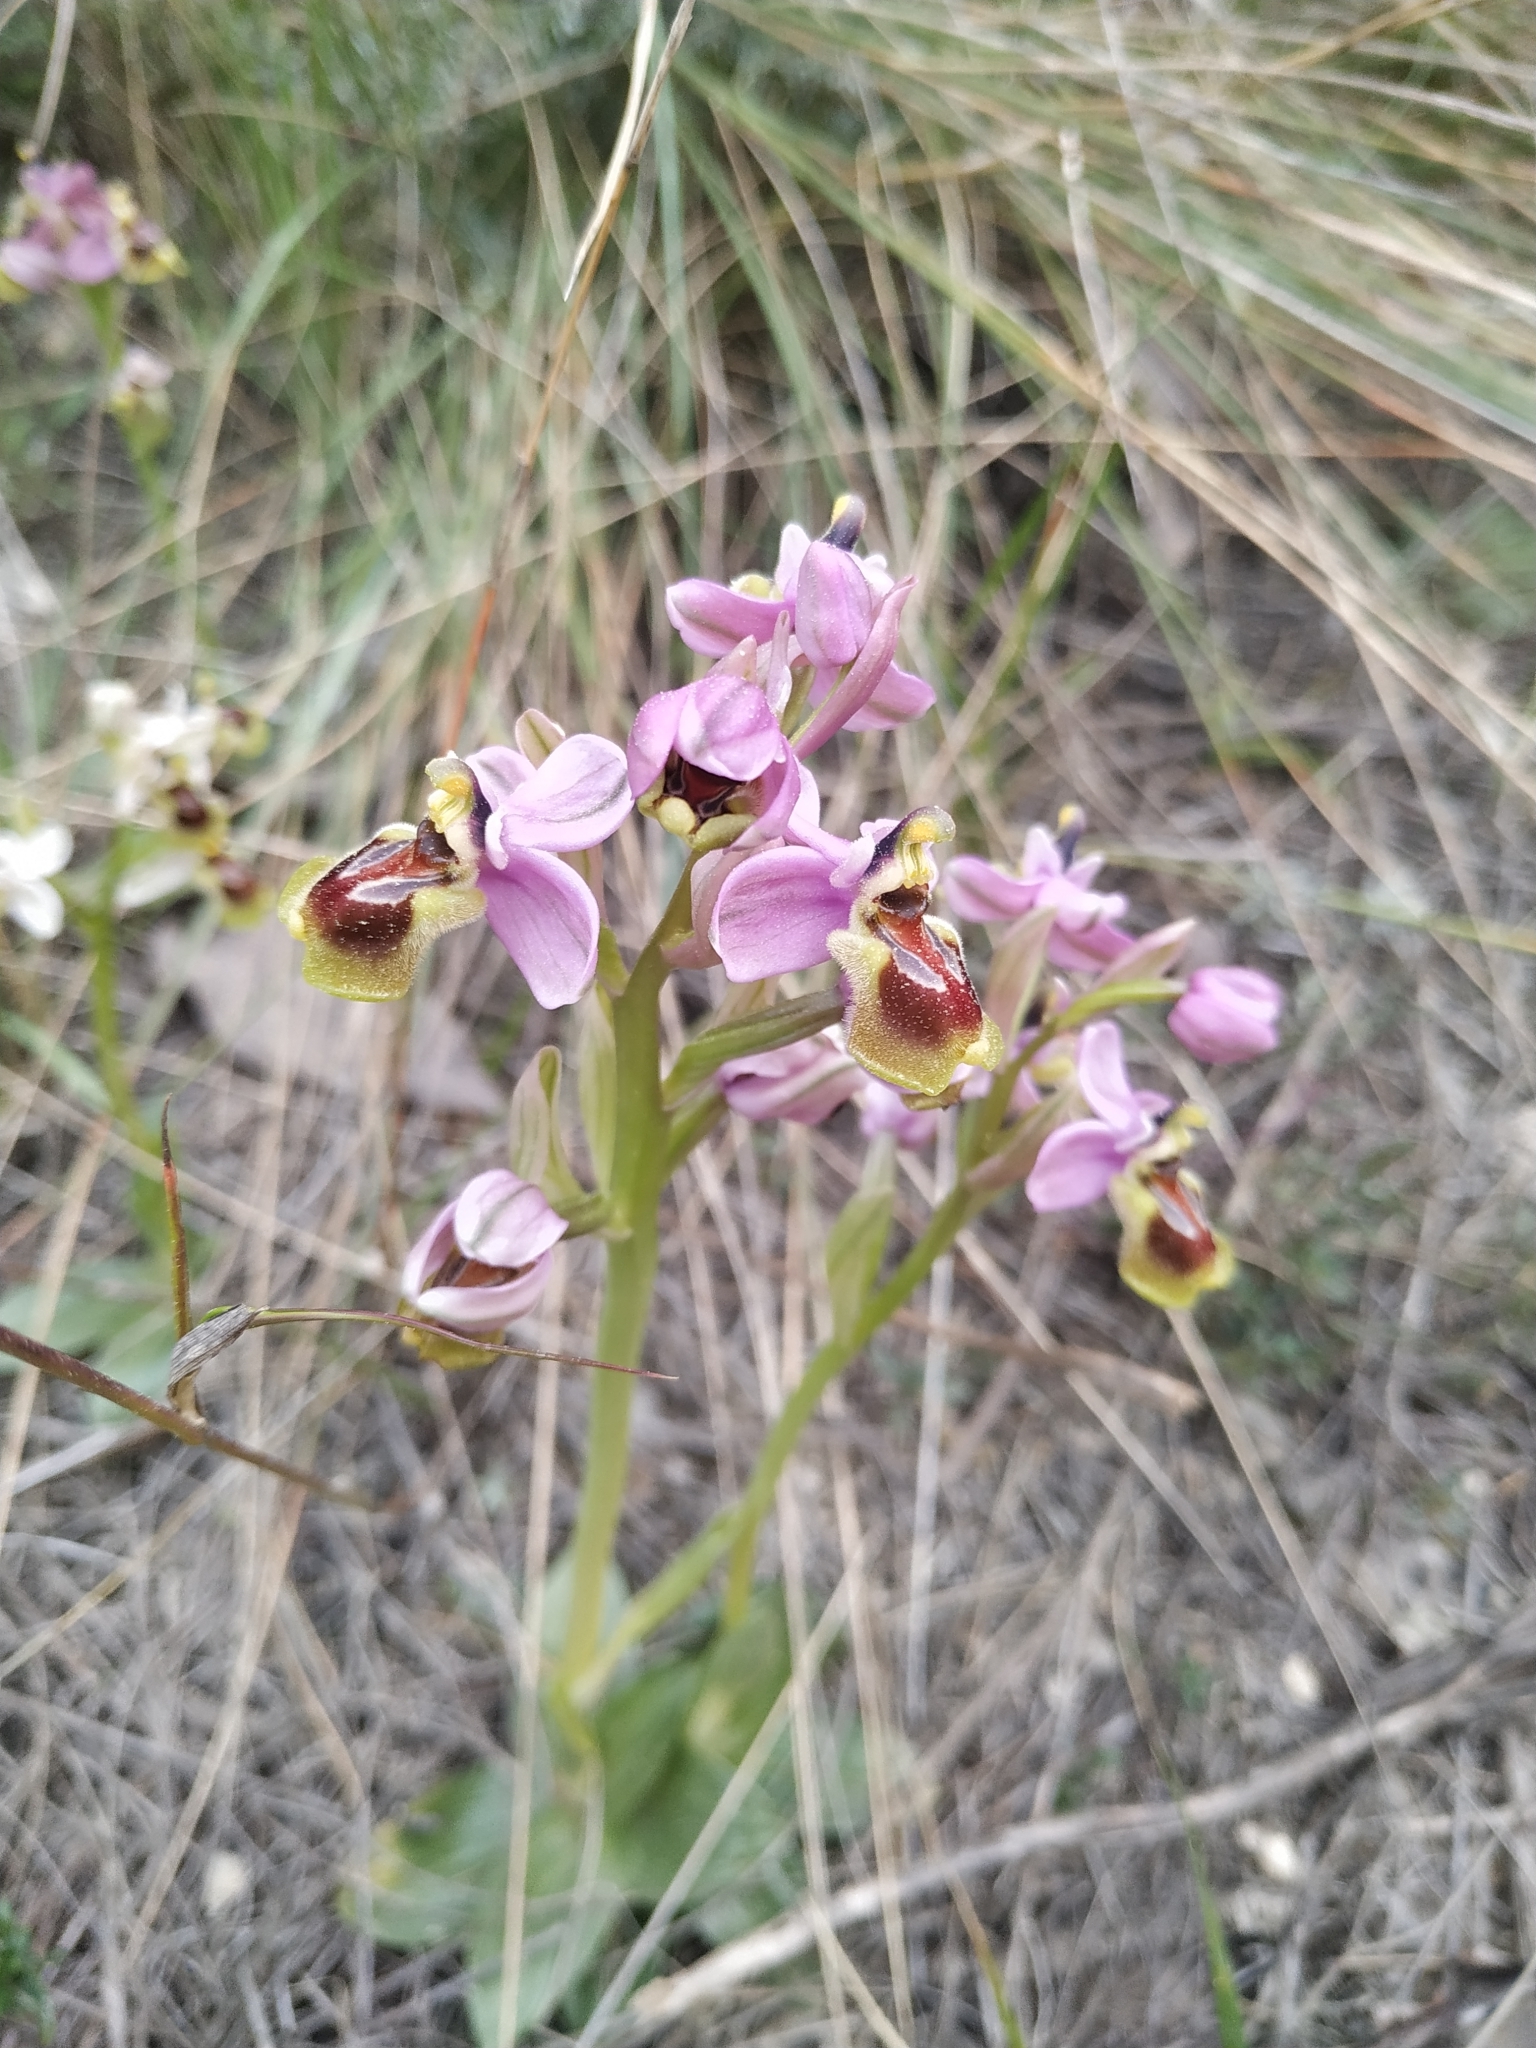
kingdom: Plantae
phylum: Tracheophyta
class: Liliopsida
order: Asparagales
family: Orchidaceae
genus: Ophrys
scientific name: Ophrys tenthredinifera
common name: Sawfly orchid
